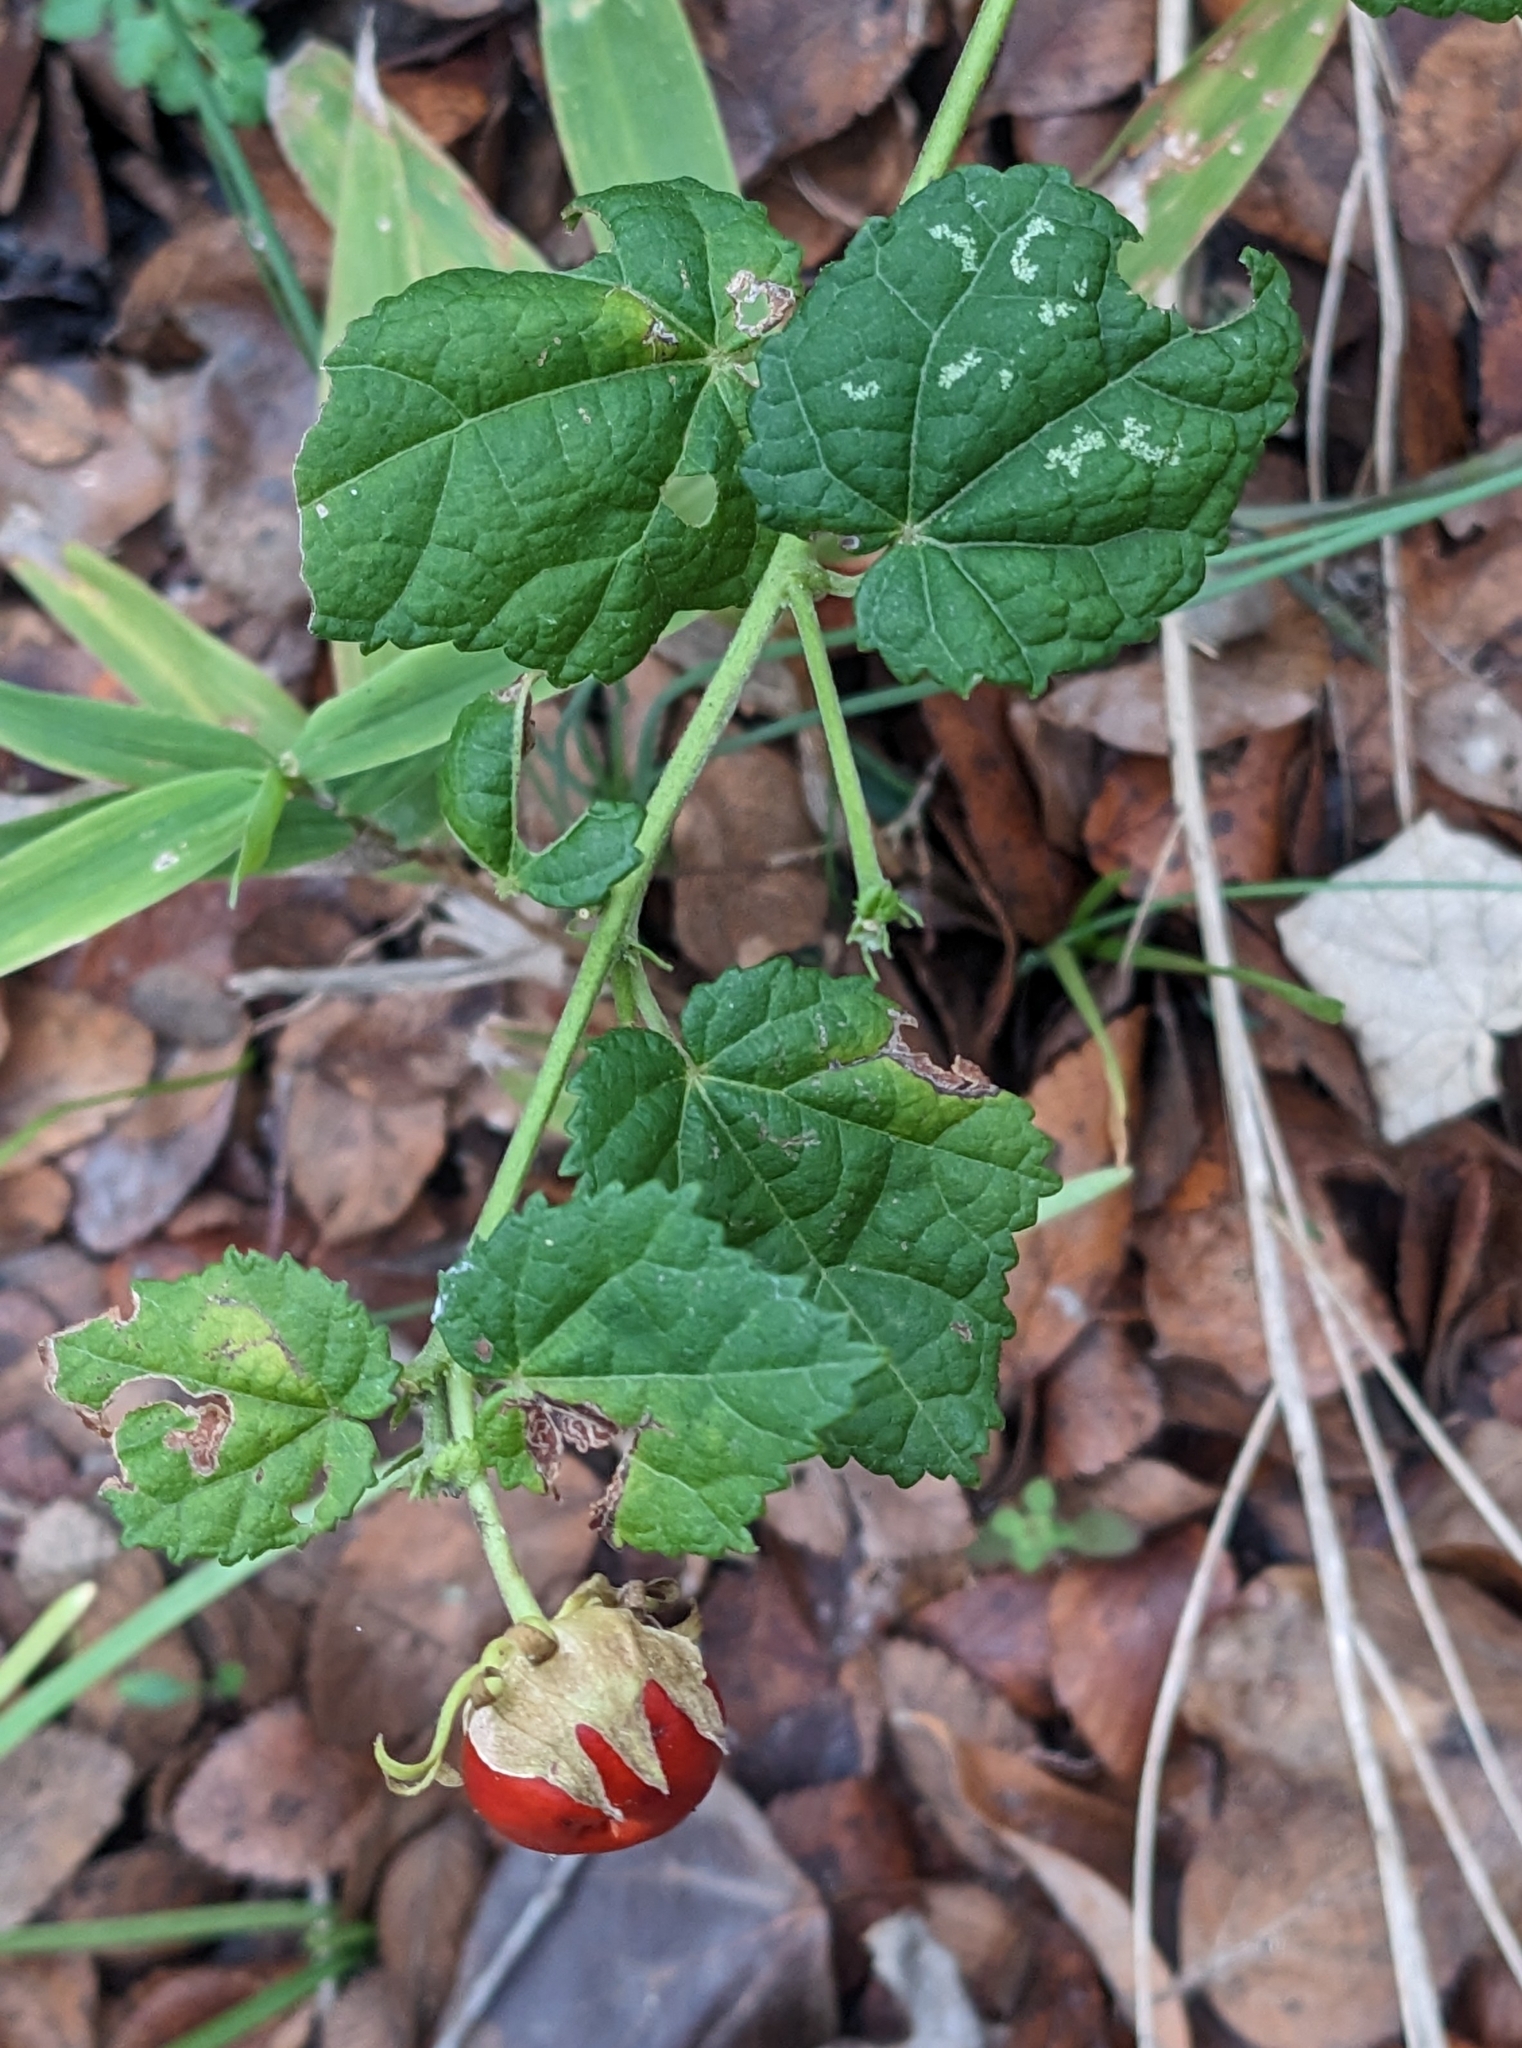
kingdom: Plantae
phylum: Tracheophyta
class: Magnoliopsida
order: Malvales
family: Malvaceae
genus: Malvaviscus
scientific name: Malvaviscus arboreus
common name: Wax mallow
